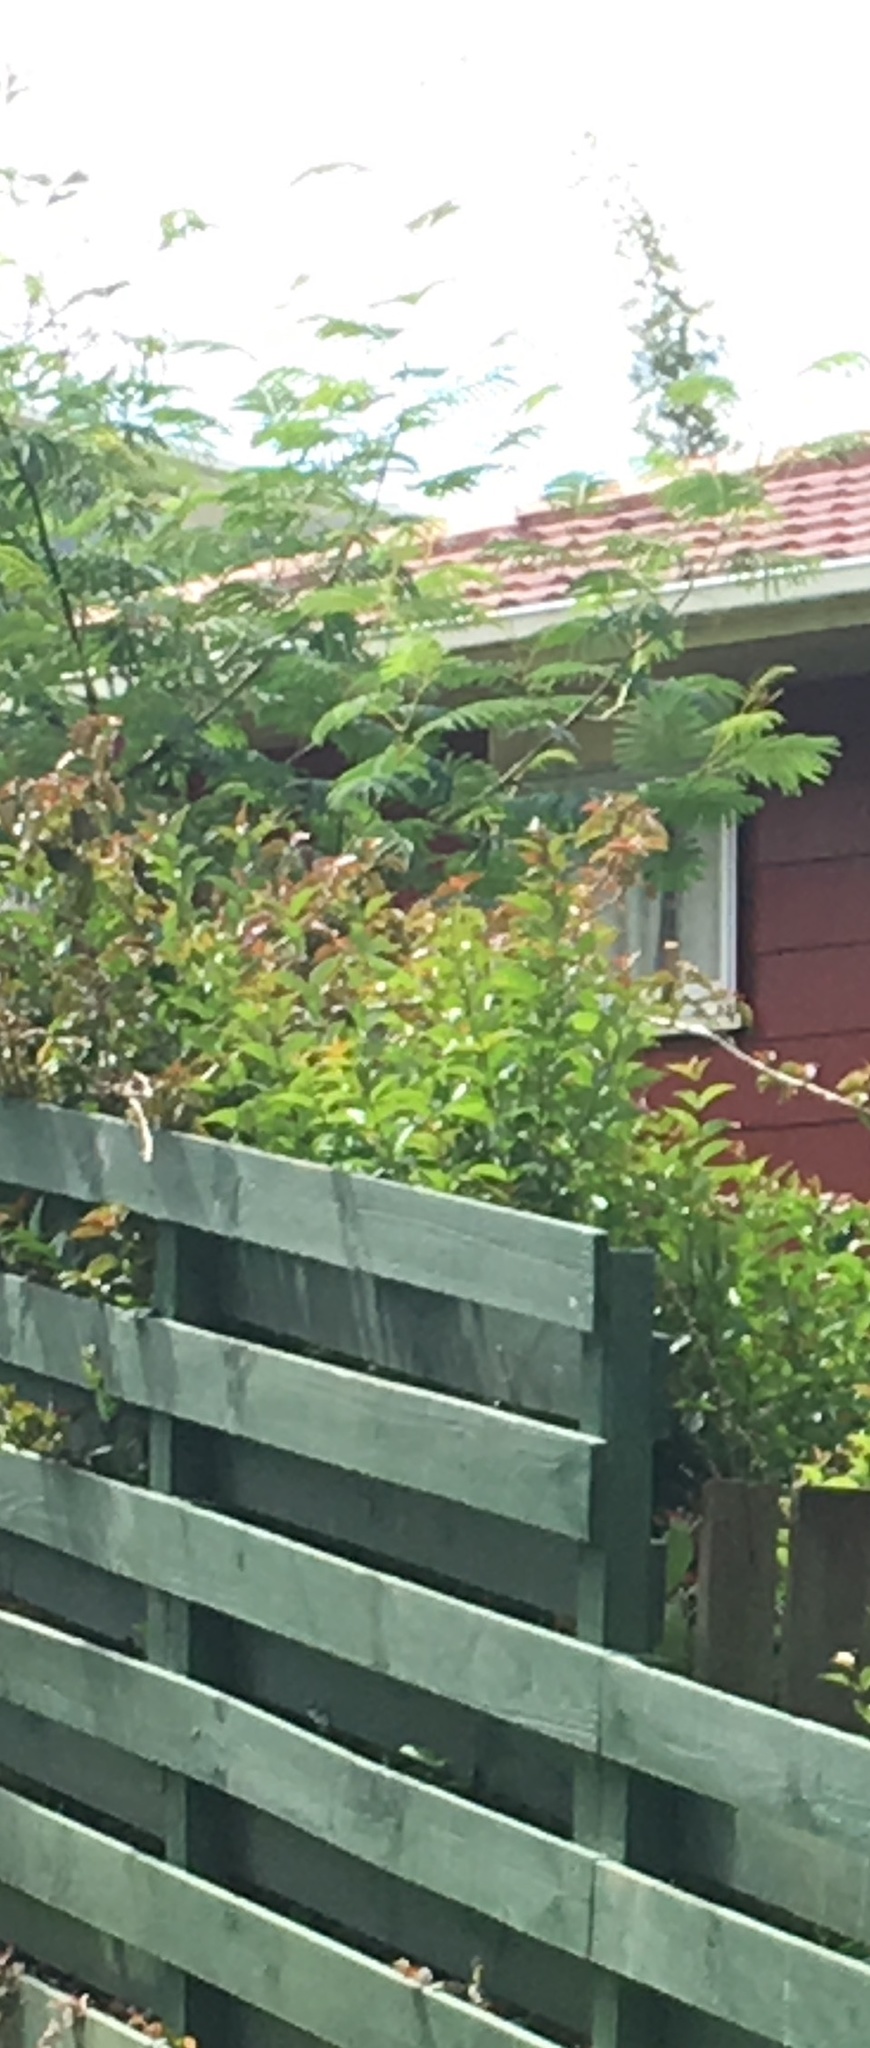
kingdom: Plantae
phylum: Tracheophyta
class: Magnoliopsida
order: Fabales
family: Fabaceae
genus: Paraserianthes
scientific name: Paraserianthes lophantha
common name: Plume albizia
